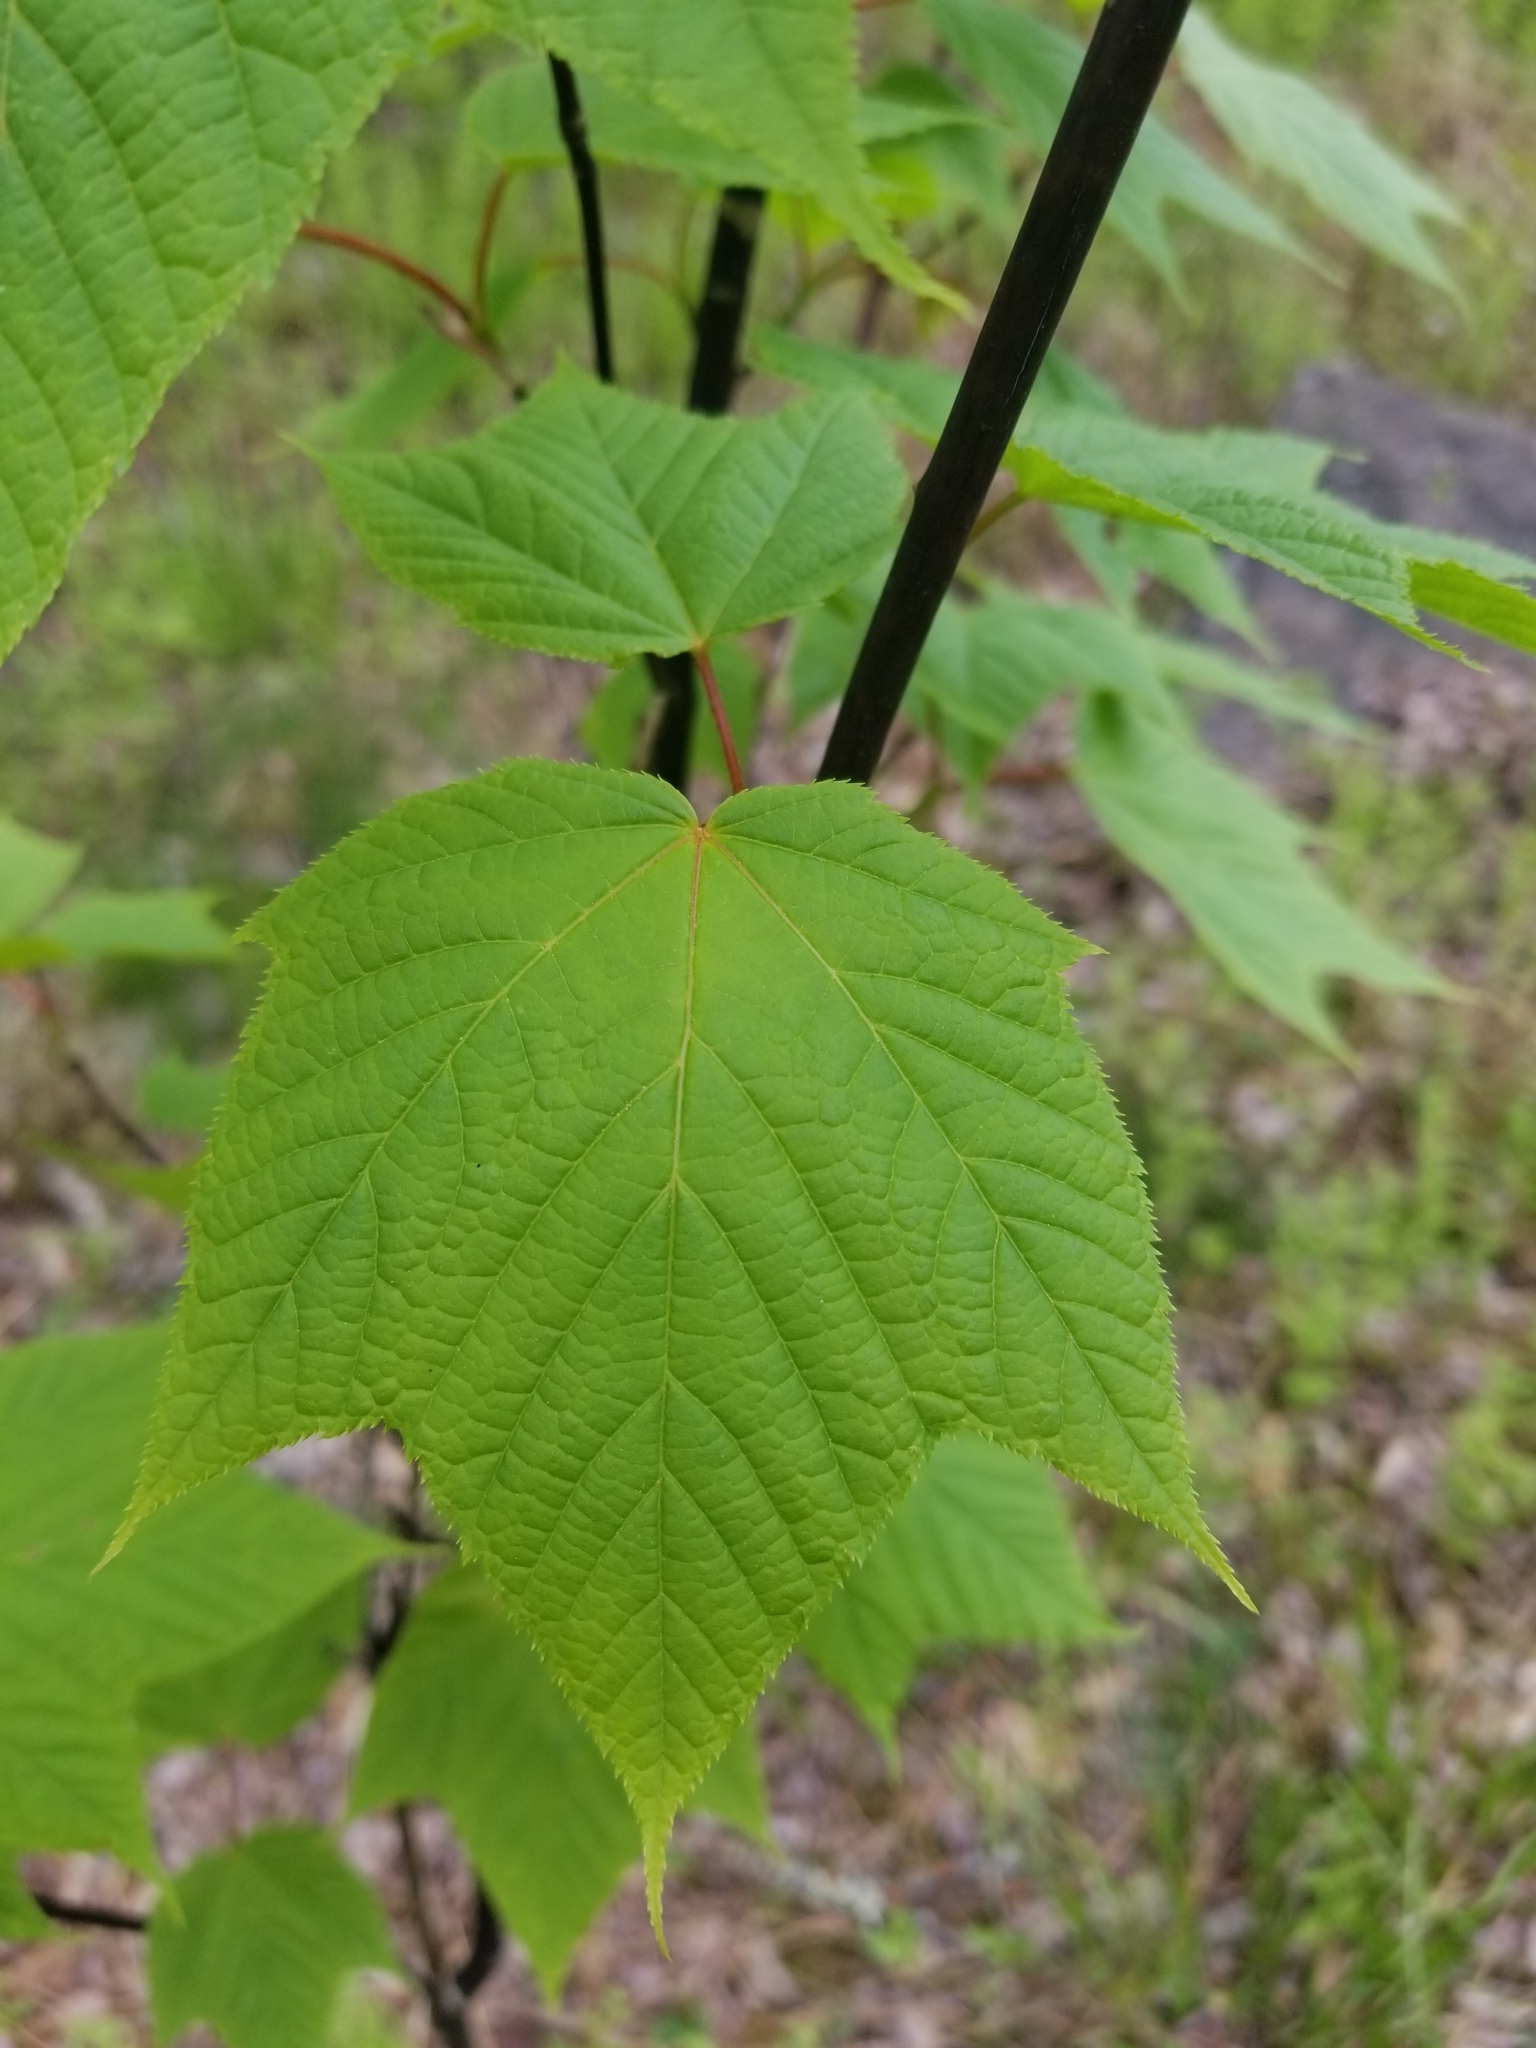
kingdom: Plantae
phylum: Tracheophyta
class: Magnoliopsida
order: Sapindales
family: Sapindaceae
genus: Acer
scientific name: Acer pensylvanicum
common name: Moosewood
